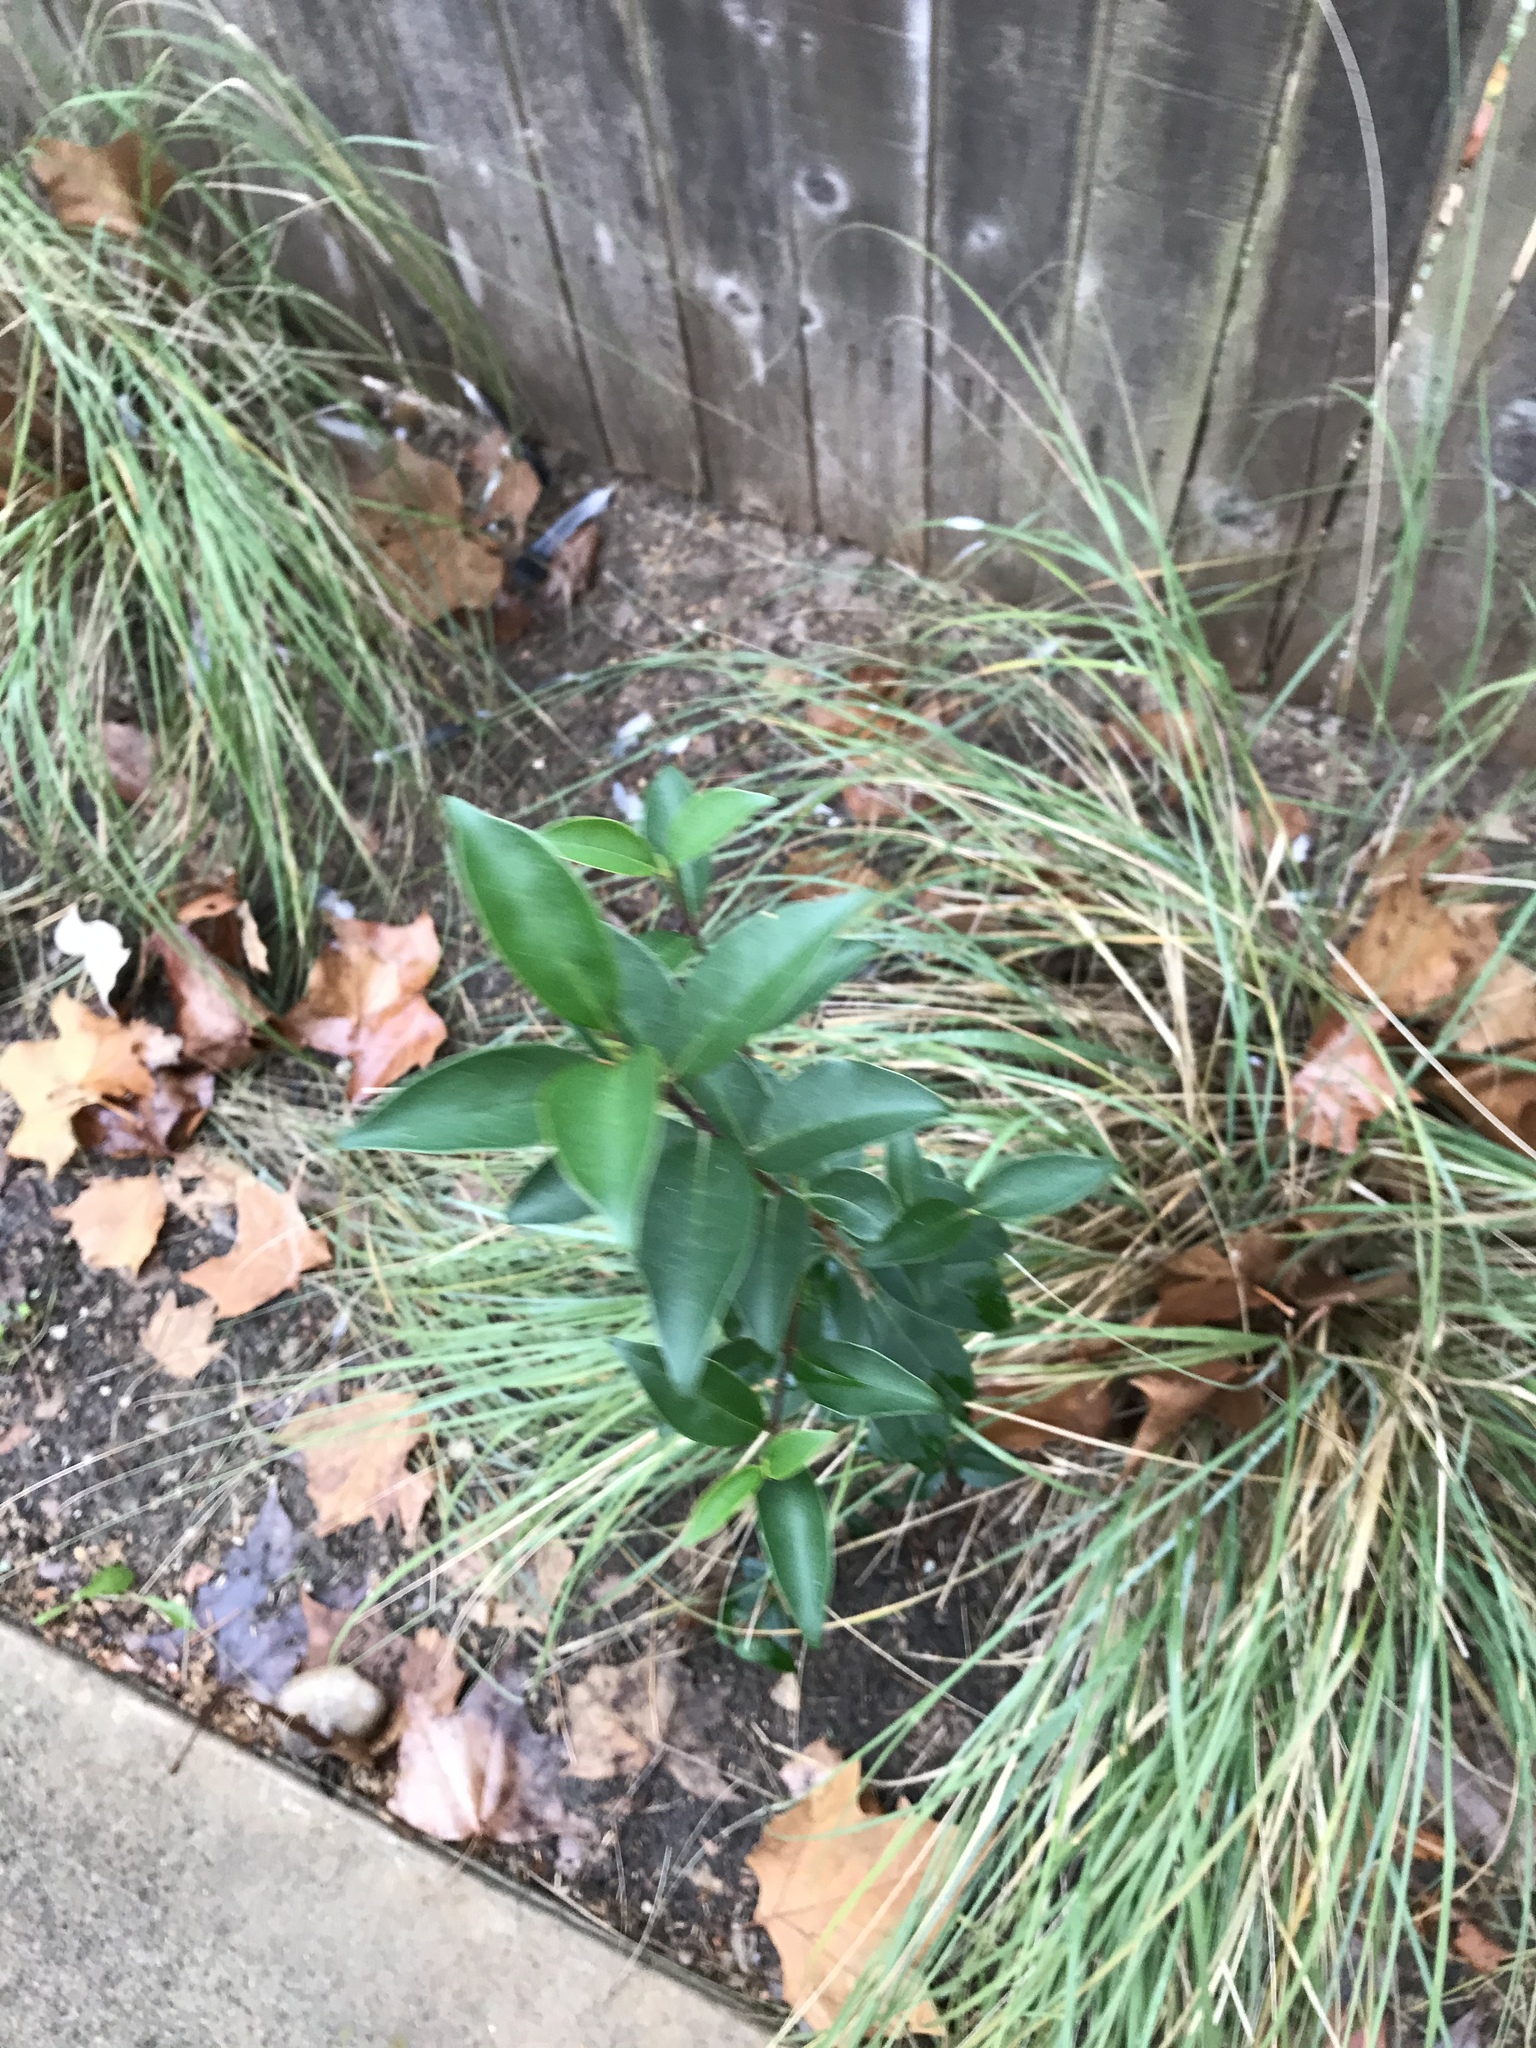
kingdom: Plantae
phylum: Tracheophyta
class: Magnoliopsida
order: Lamiales
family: Oleaceae
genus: Ligustrum
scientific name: Ligustrum lucidum
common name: Glossy privet
